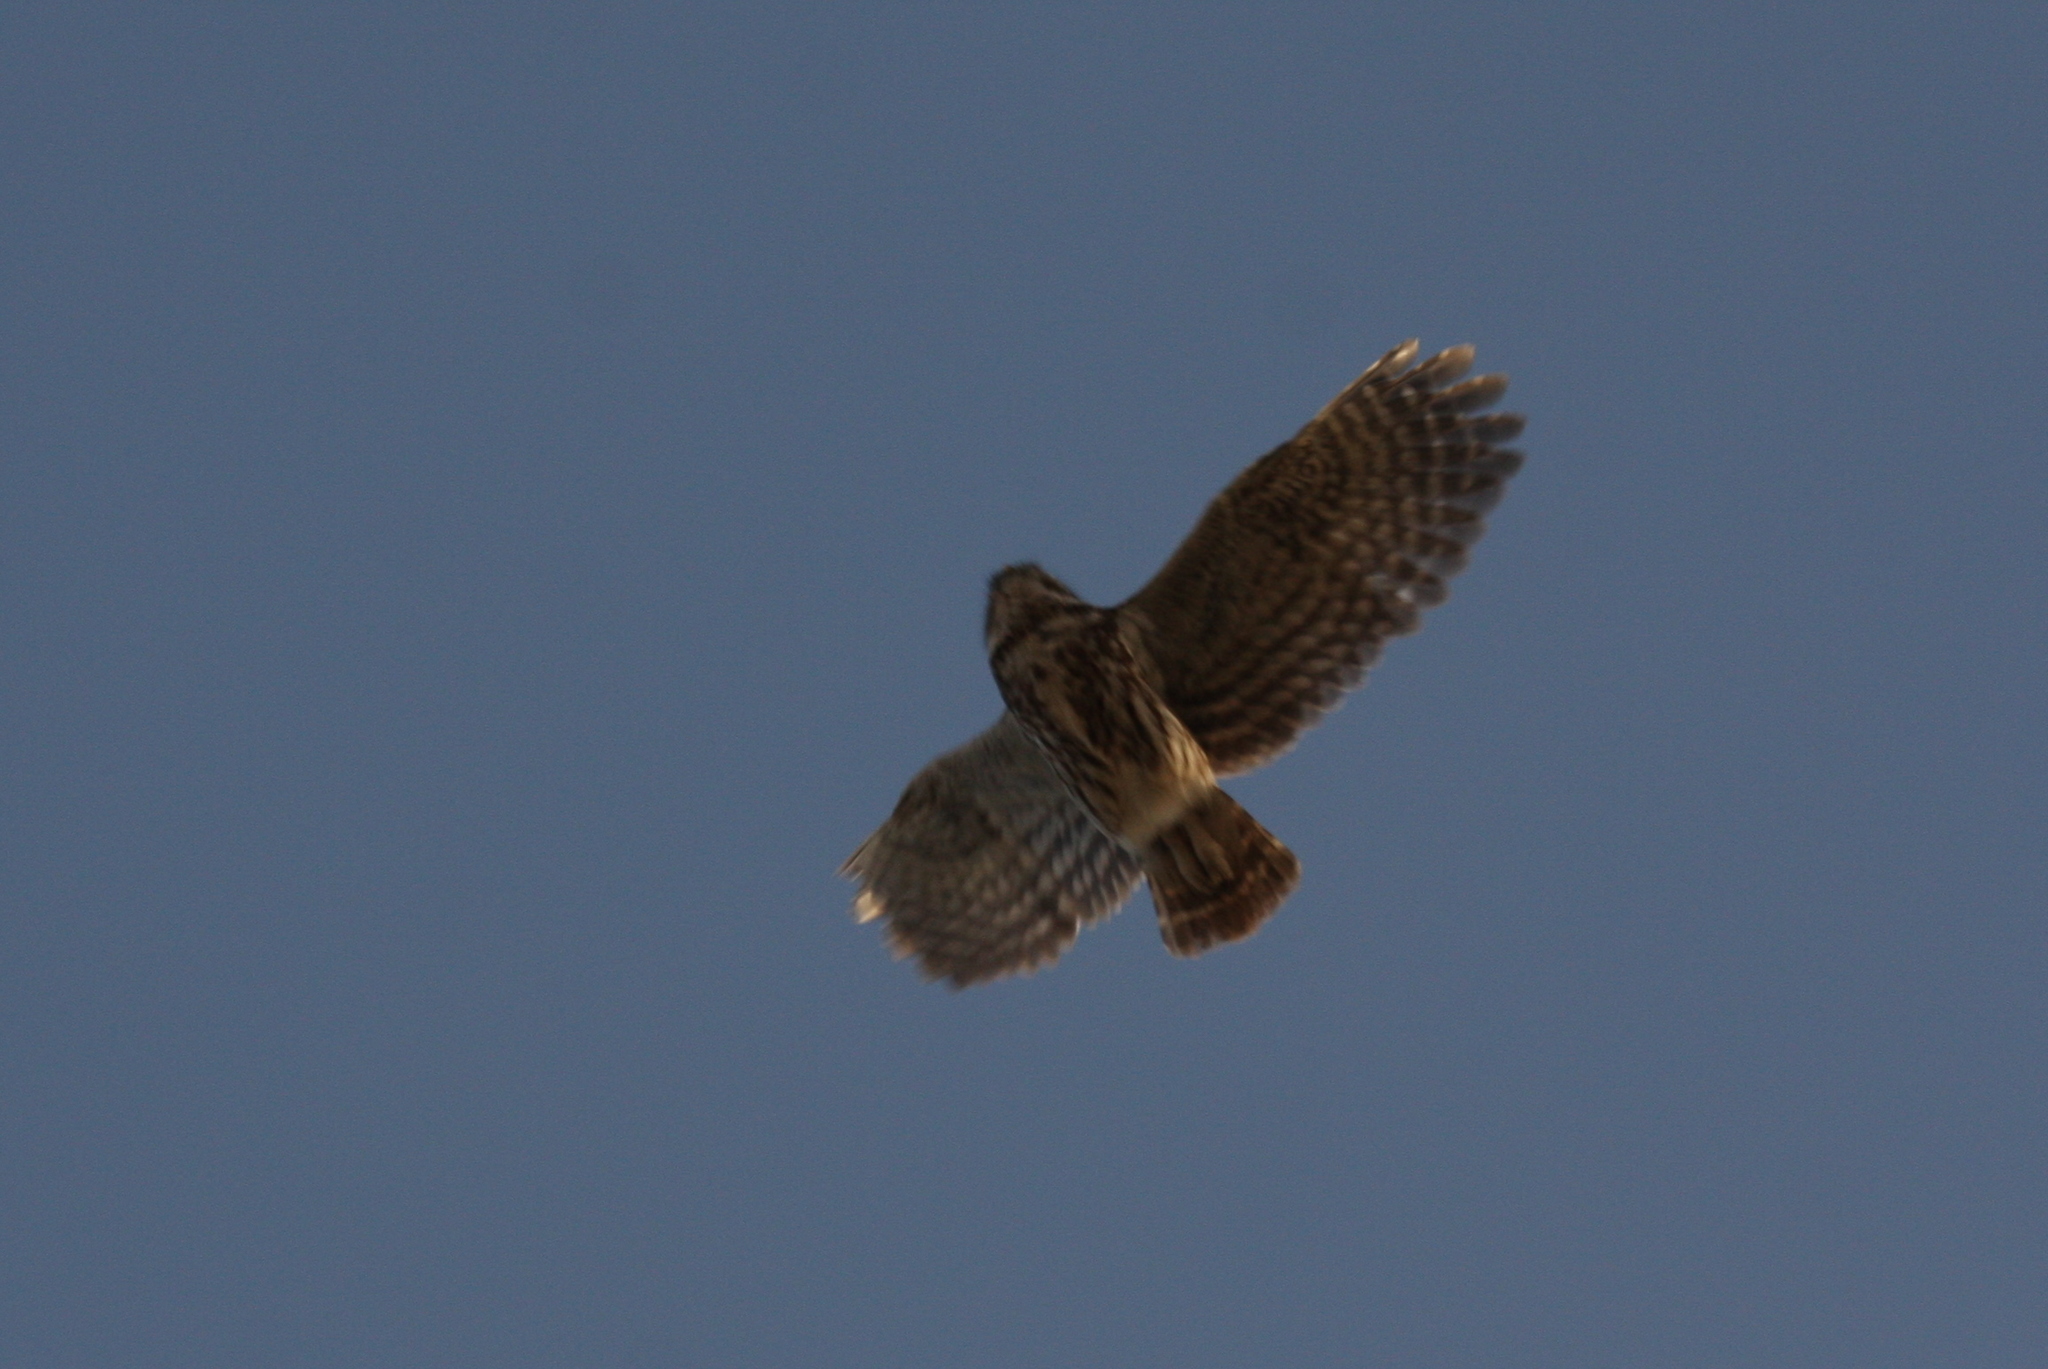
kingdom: Animalia
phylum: Chordata
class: Aves
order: Strigiformes
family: Strigidae
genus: Athene
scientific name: Athene noctua
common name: Little owl
